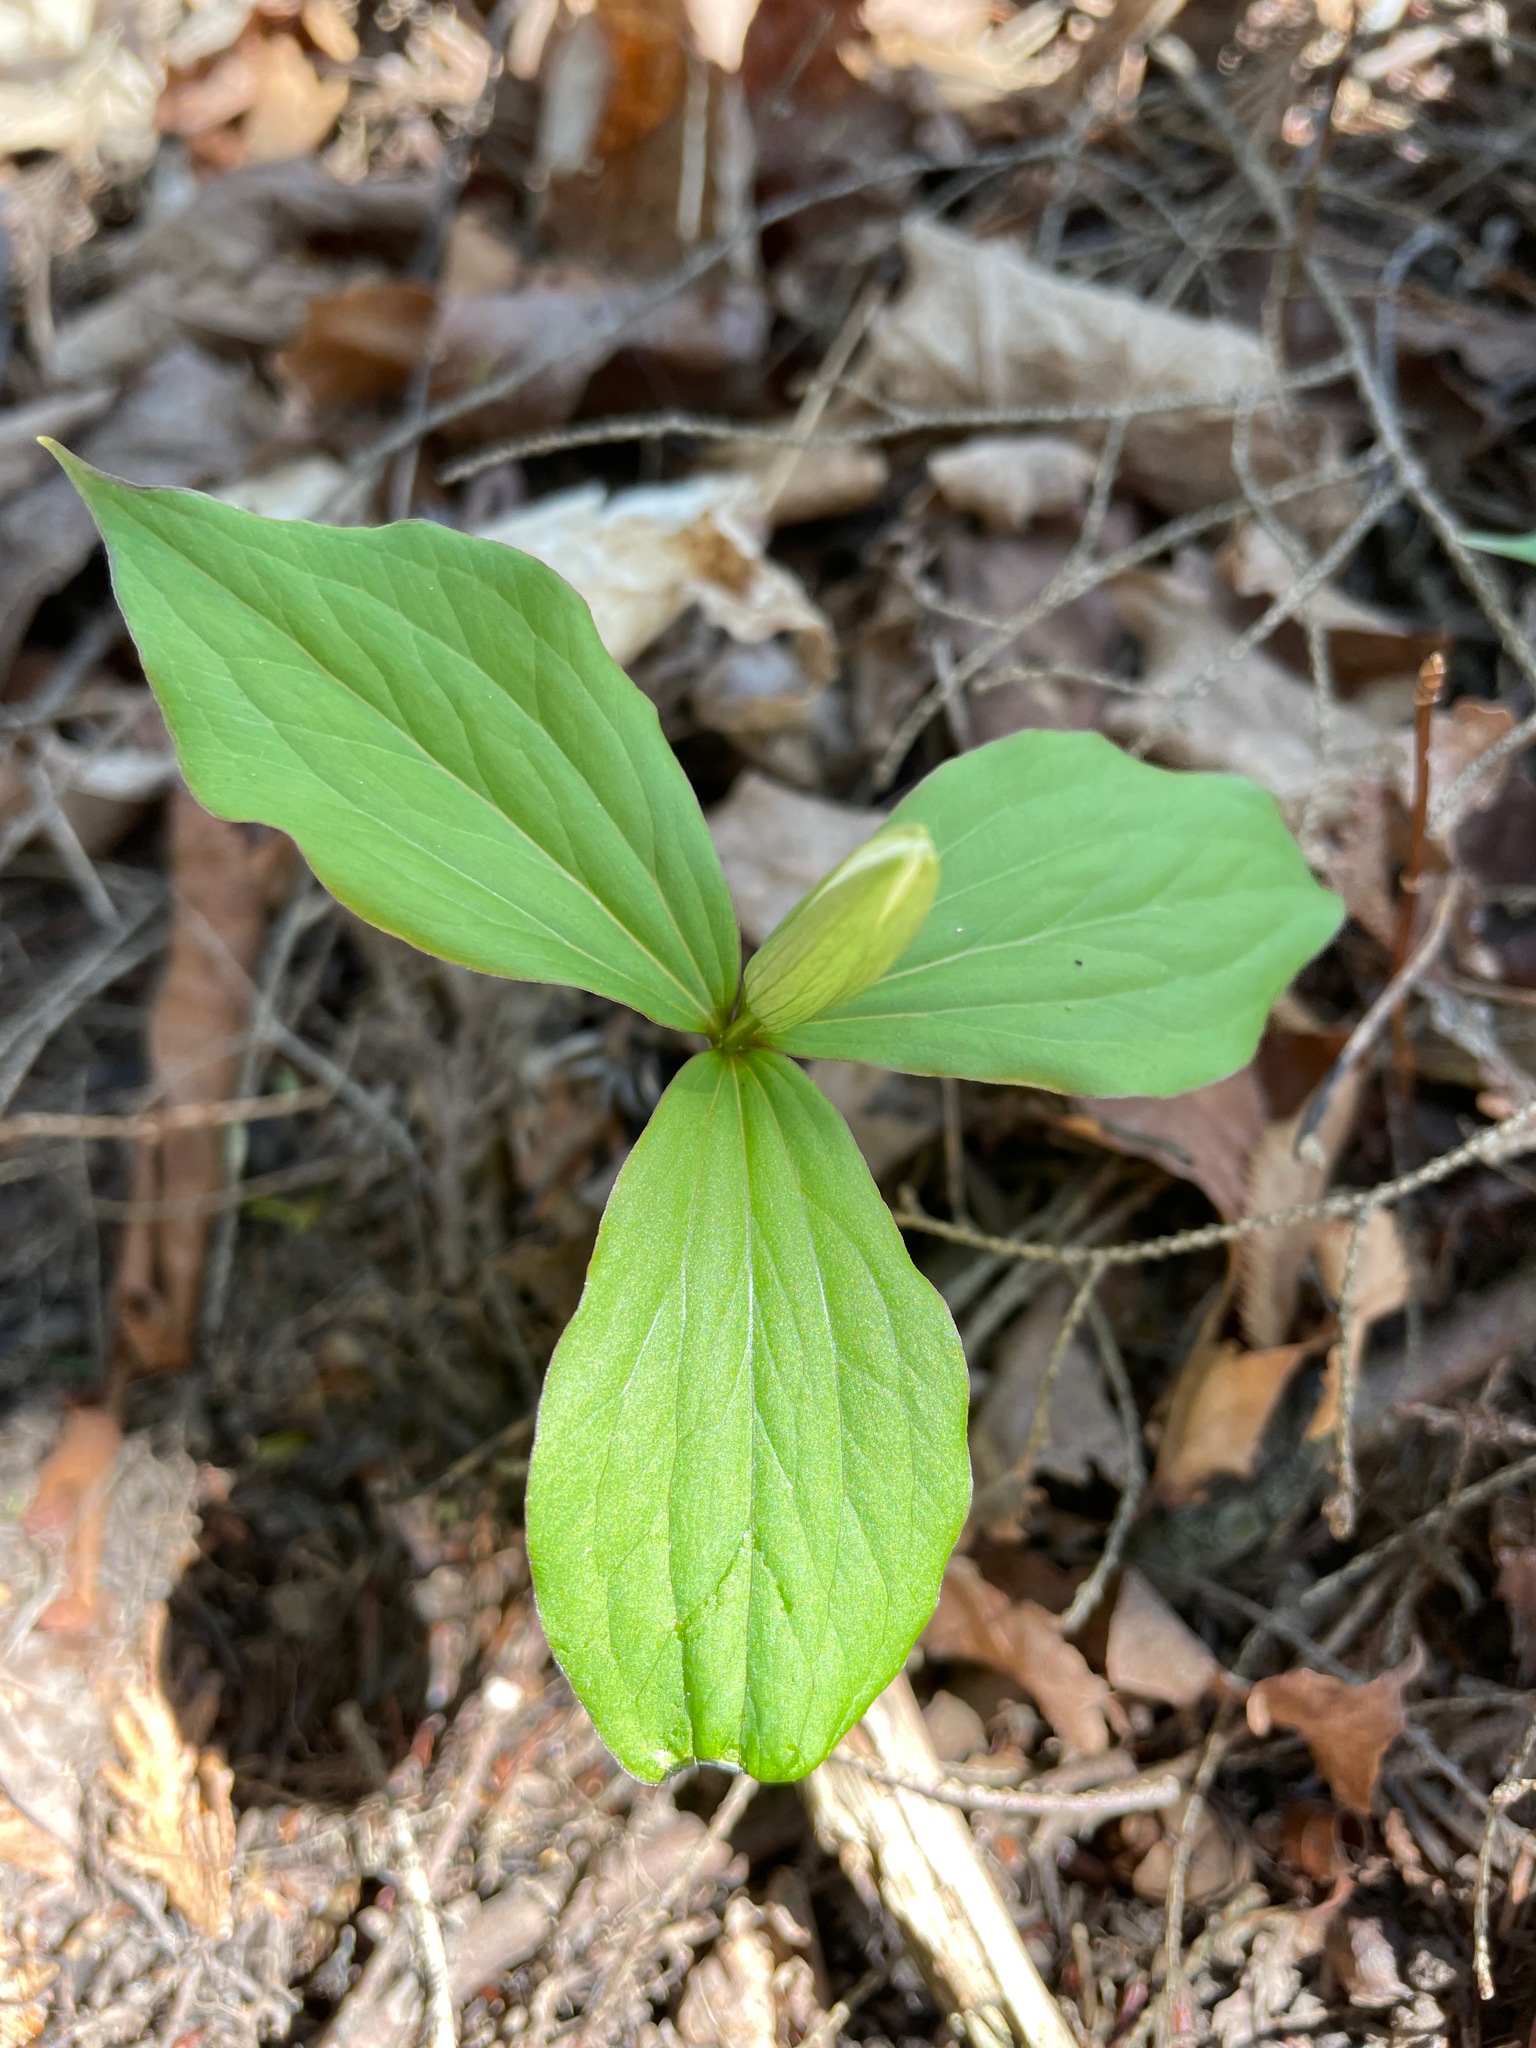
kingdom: Plantae
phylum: Tracheophyta
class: Liliopsida
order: Liliales
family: Melanthiaceae
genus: Trillium
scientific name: Trillium grandiflorum
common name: Great white trillium
